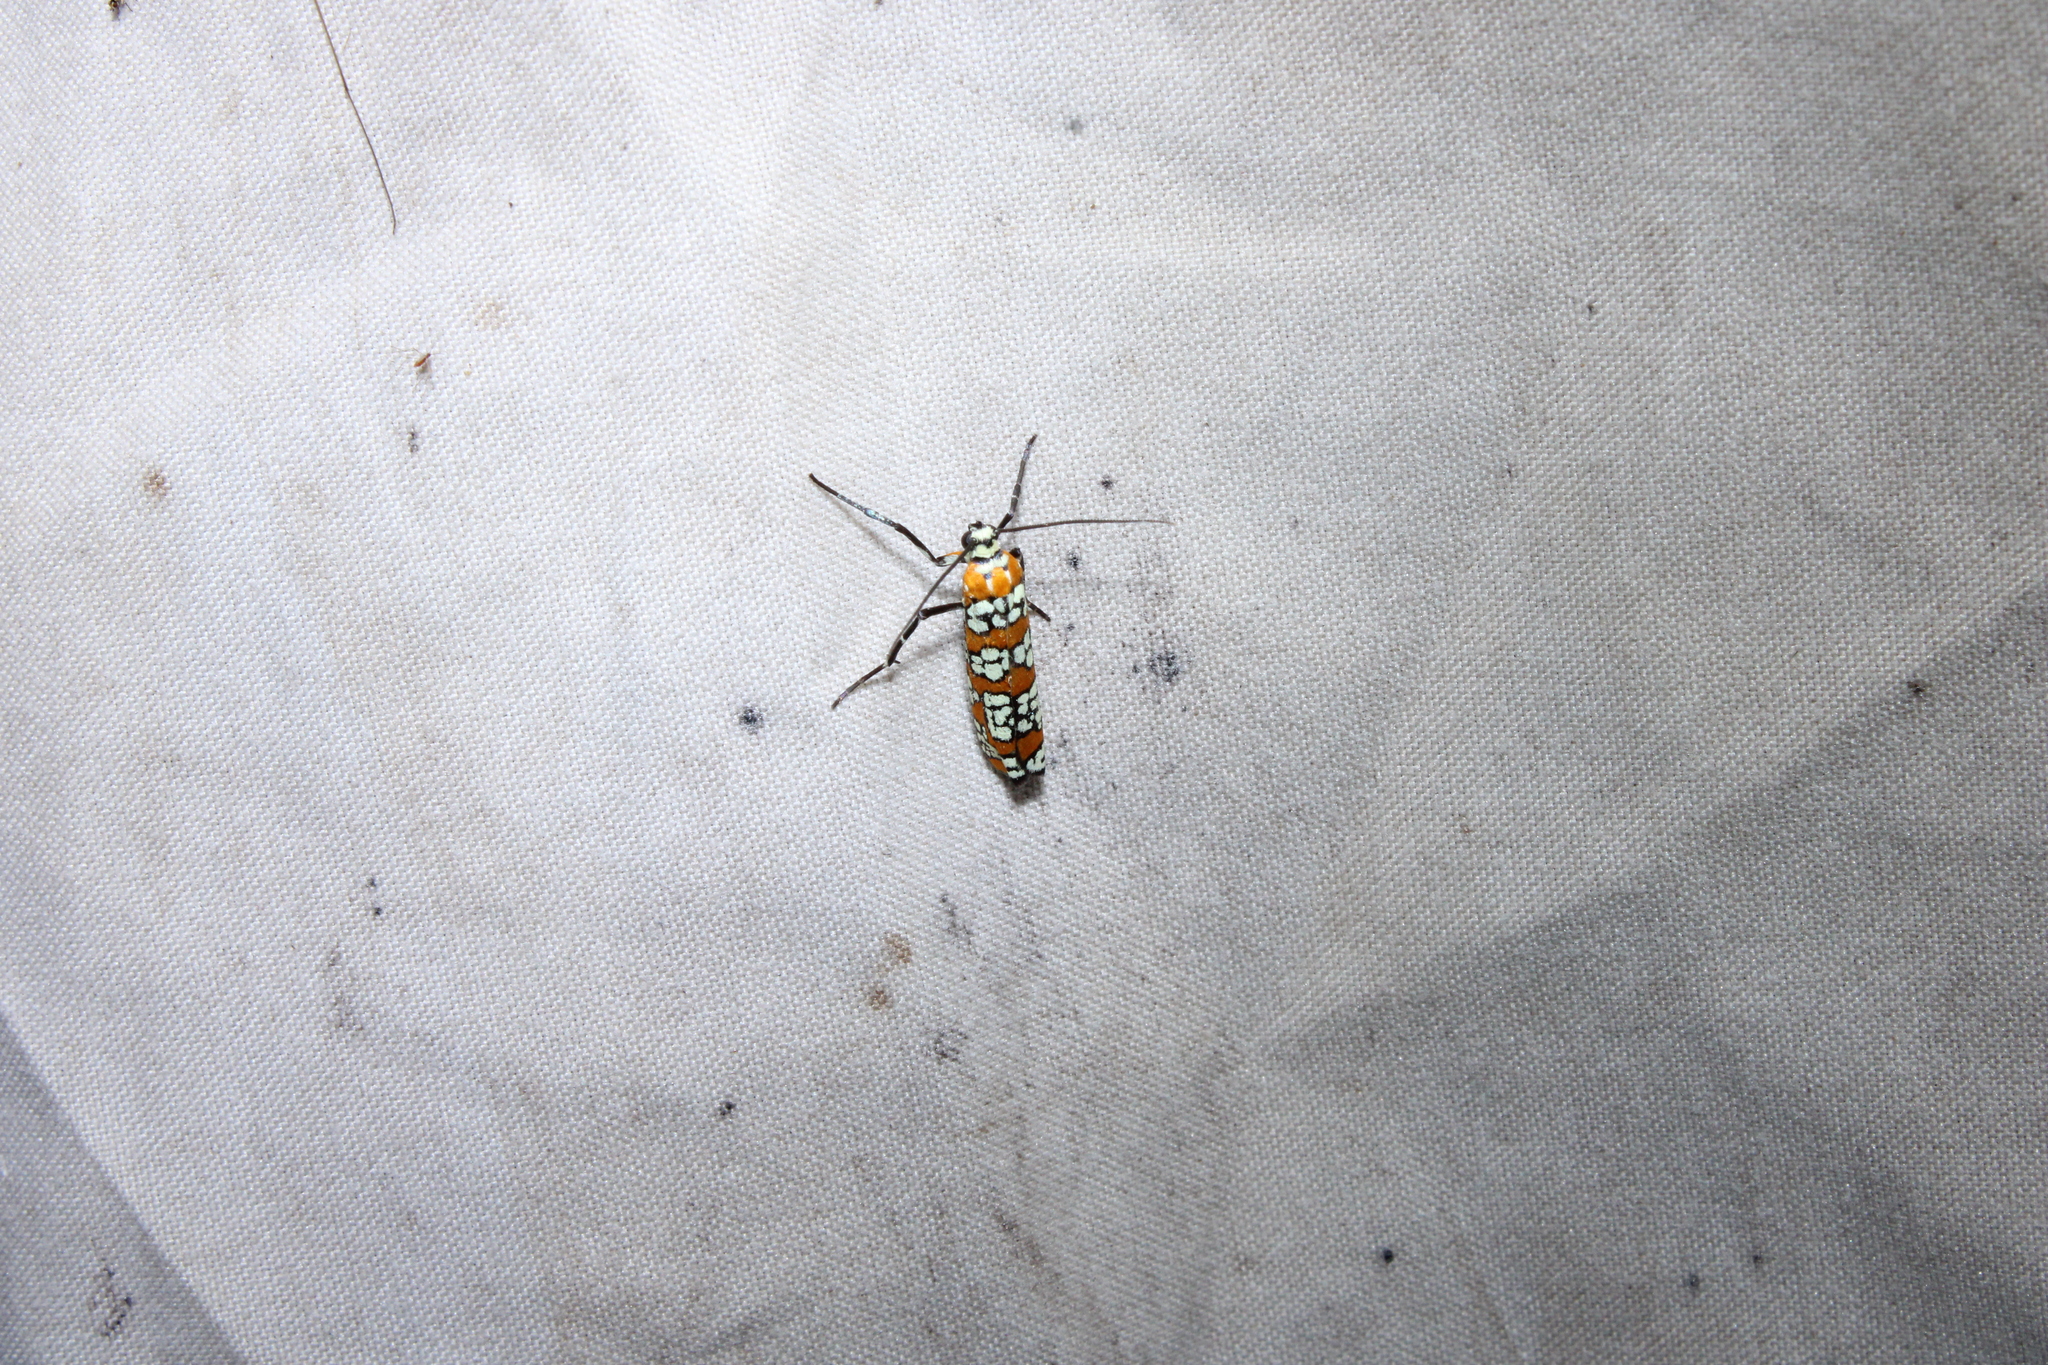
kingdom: Animalia
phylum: Arthropoda
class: Insecta
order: Lepidoptera
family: Attevidae
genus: Atteva
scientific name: Atteva punctella
